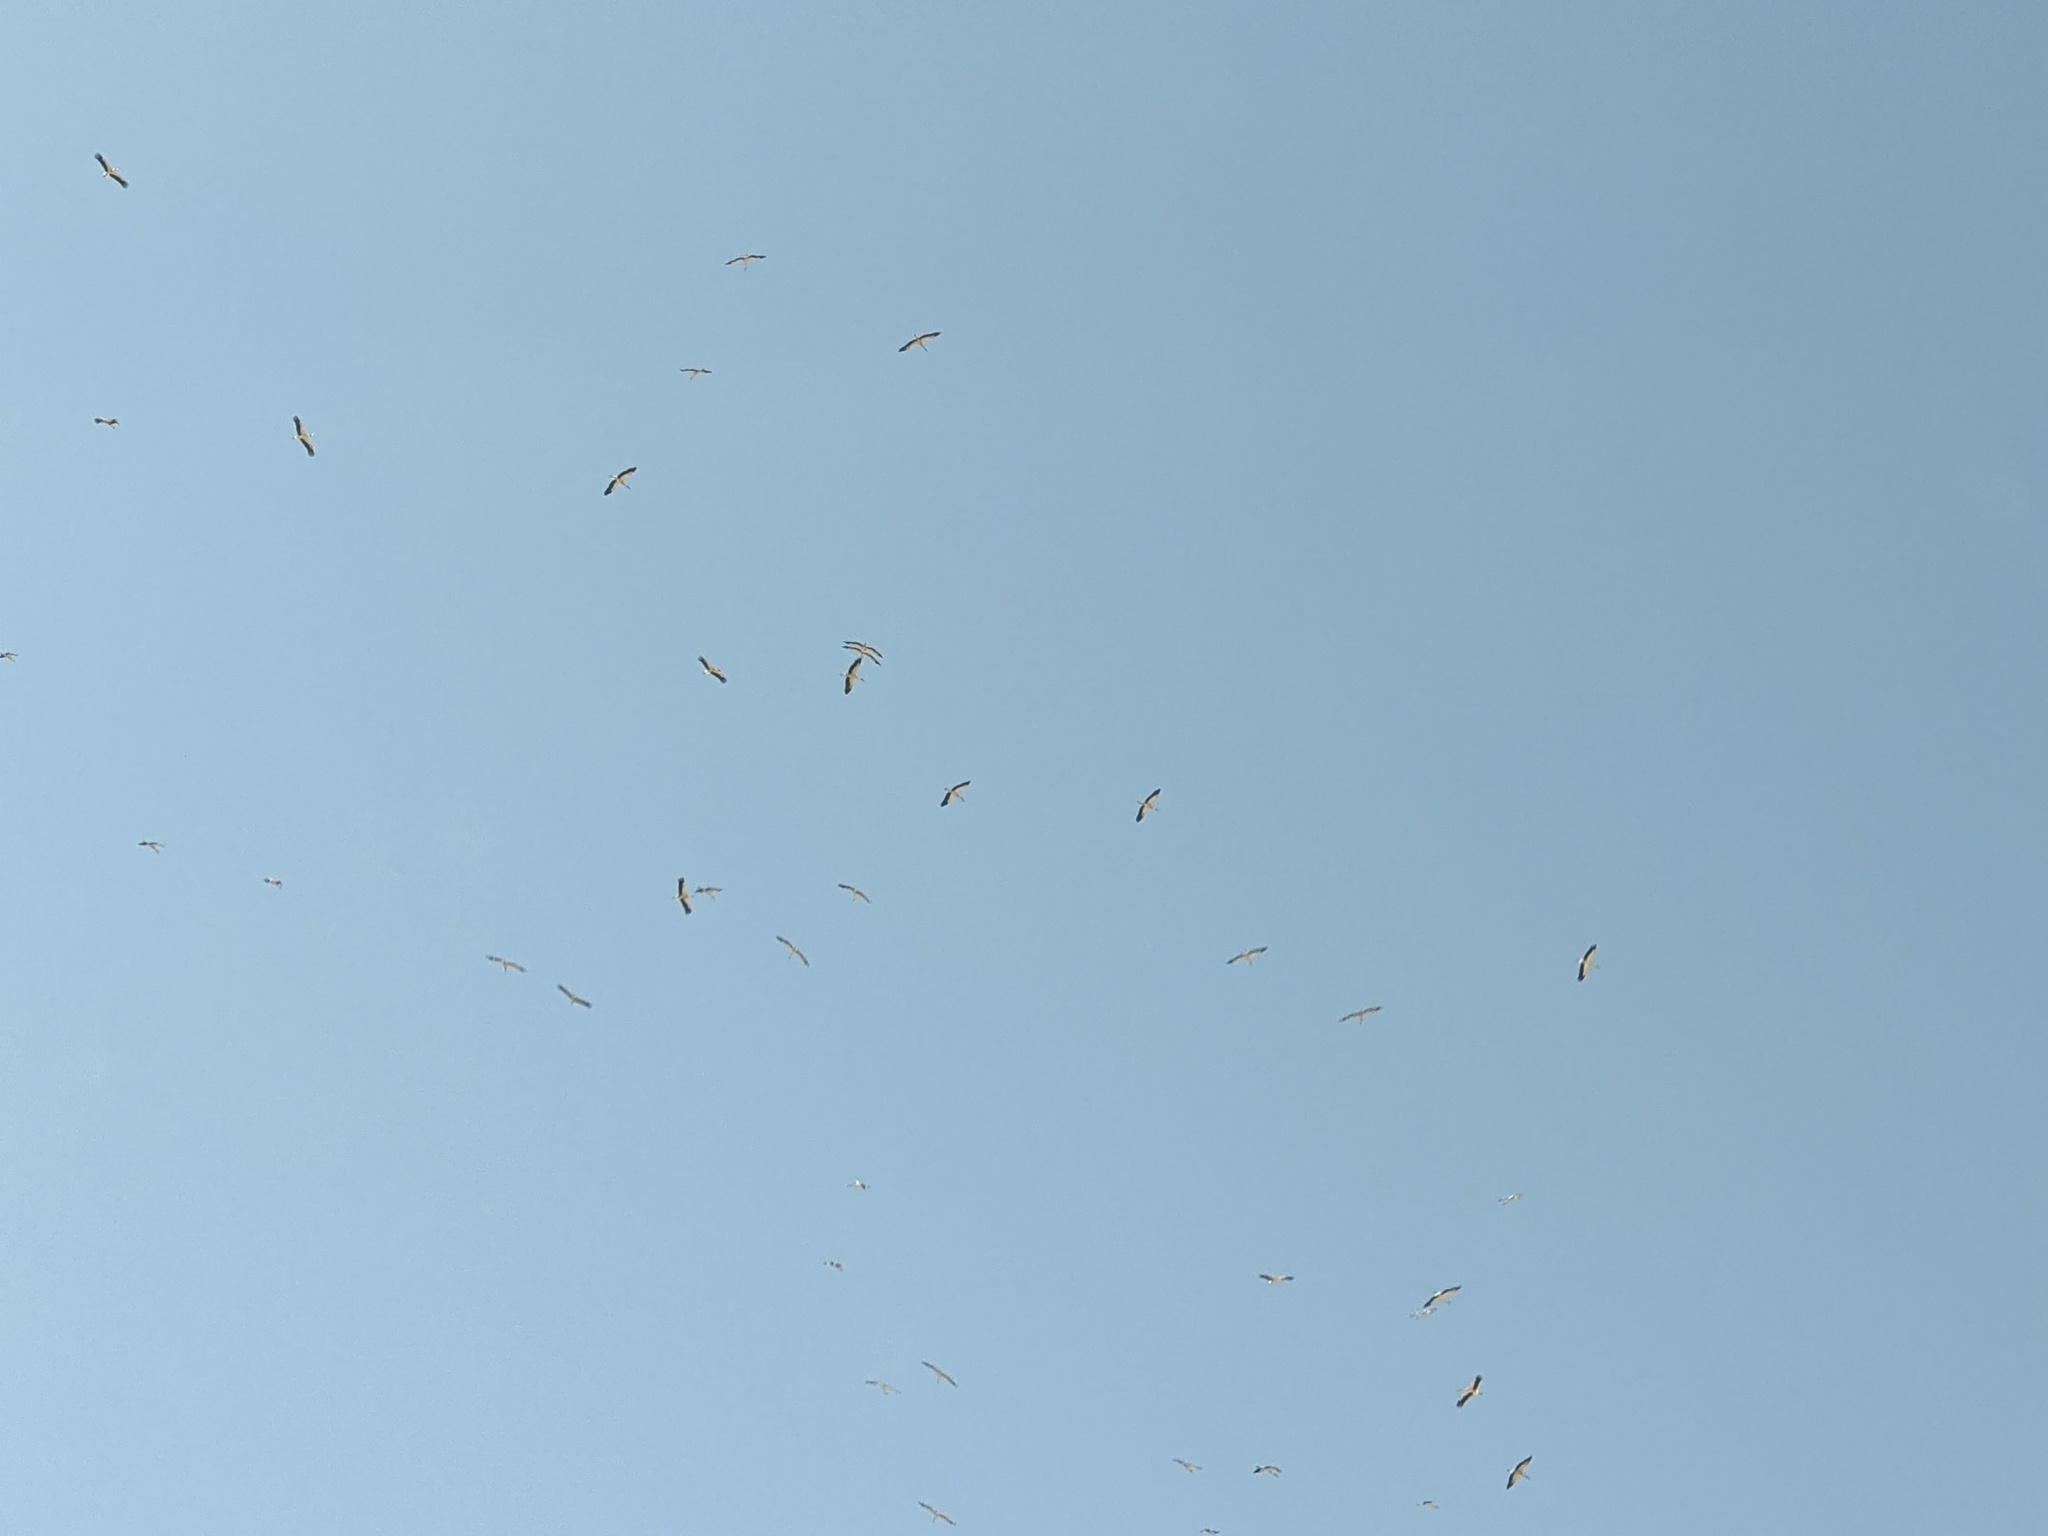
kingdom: Animalia
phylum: Chordata
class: Aves
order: Ciconiiformes
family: Ciconiidae
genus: Ciconia
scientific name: Ciconia ciconia
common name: White stork
